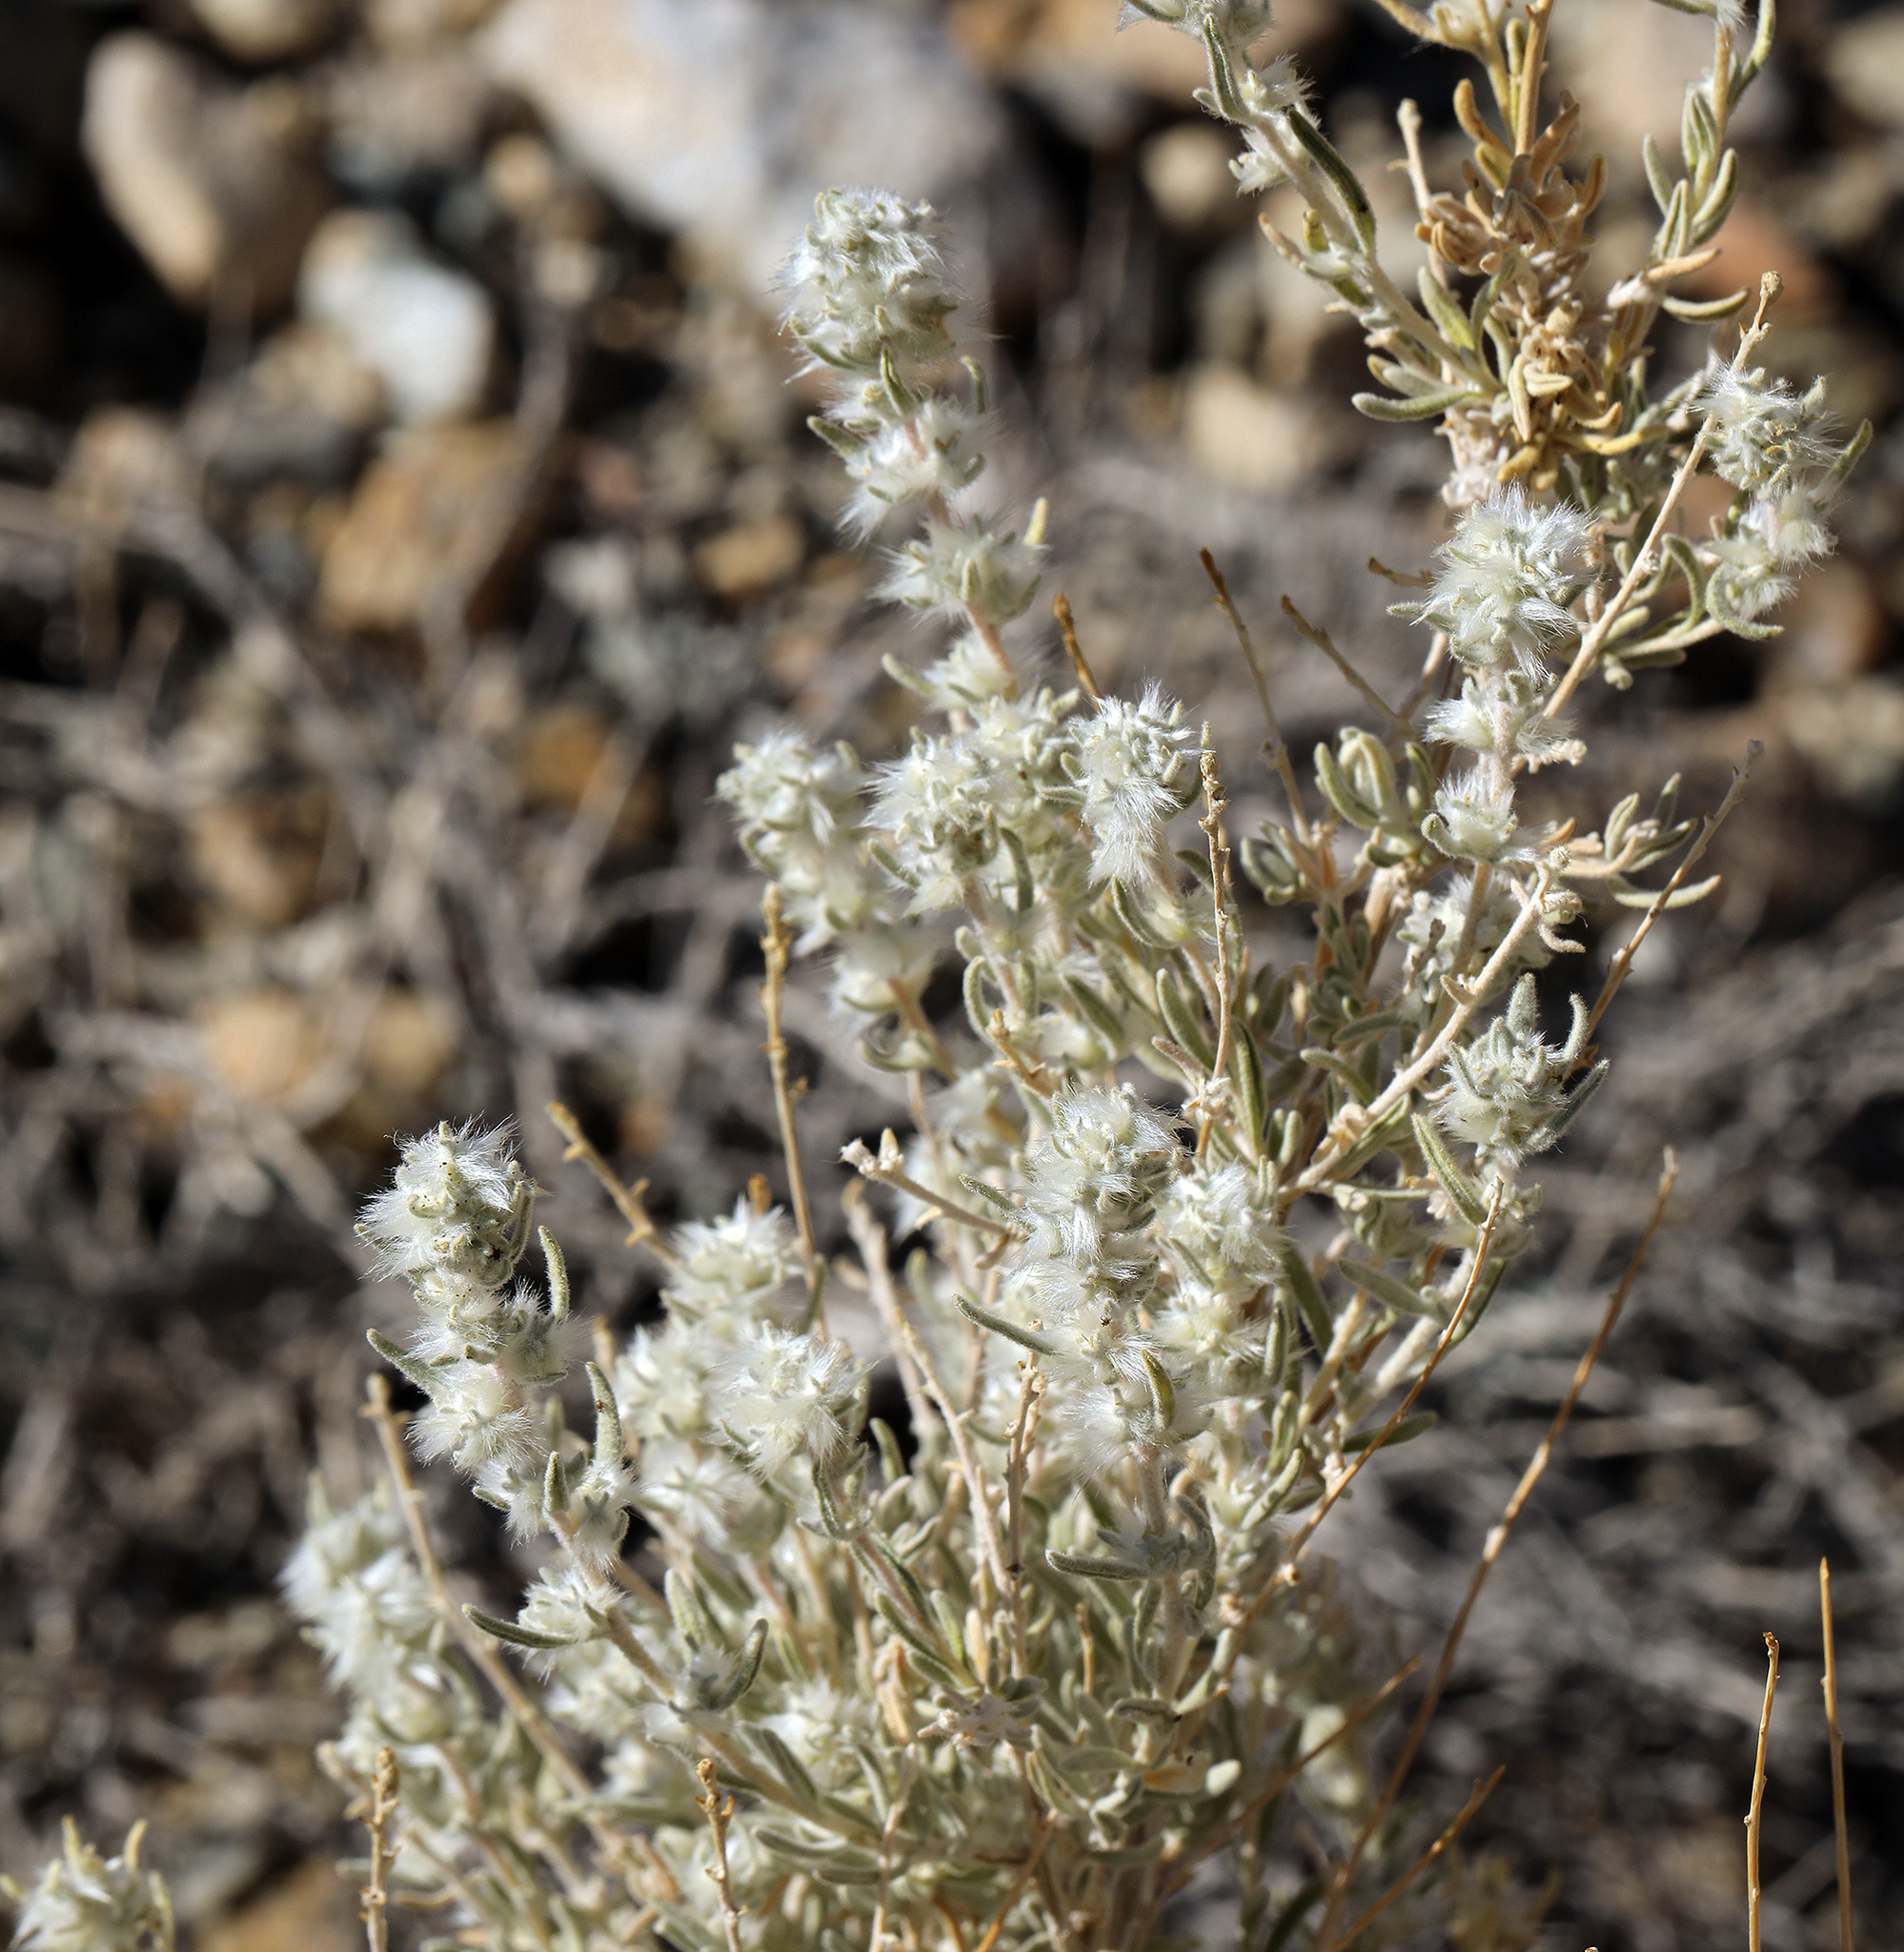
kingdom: Plantae
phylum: Tracheophyta
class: Magnoliopsida
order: Caryophyllales
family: Amaranthaceae
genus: Krascheninnikovia
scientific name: Krascheninnikovia lanata
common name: Winterfat
